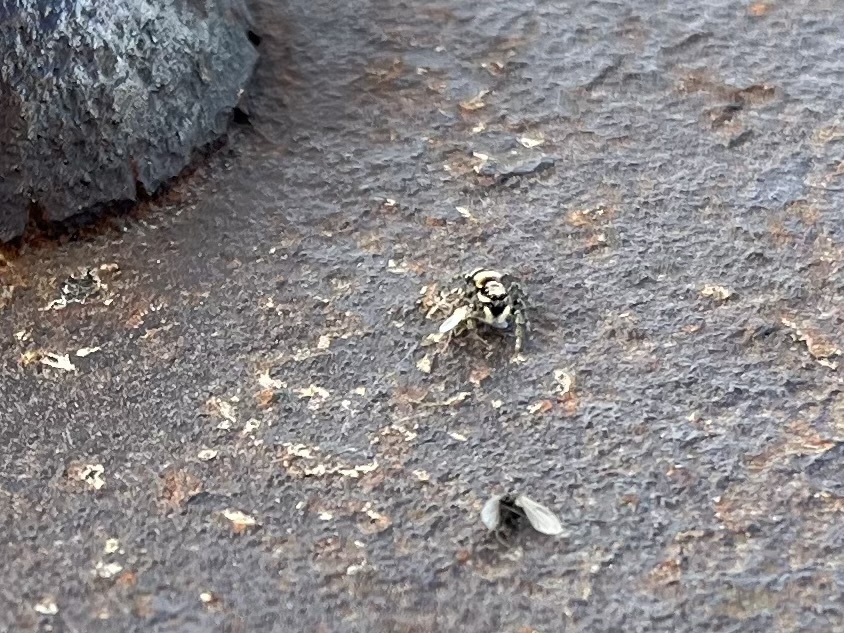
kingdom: Animalia
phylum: Arthropoda
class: Arachnida
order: Araneae
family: Salticidae
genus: Salticus
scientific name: Salticus scenicus
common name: Zebra jumper
